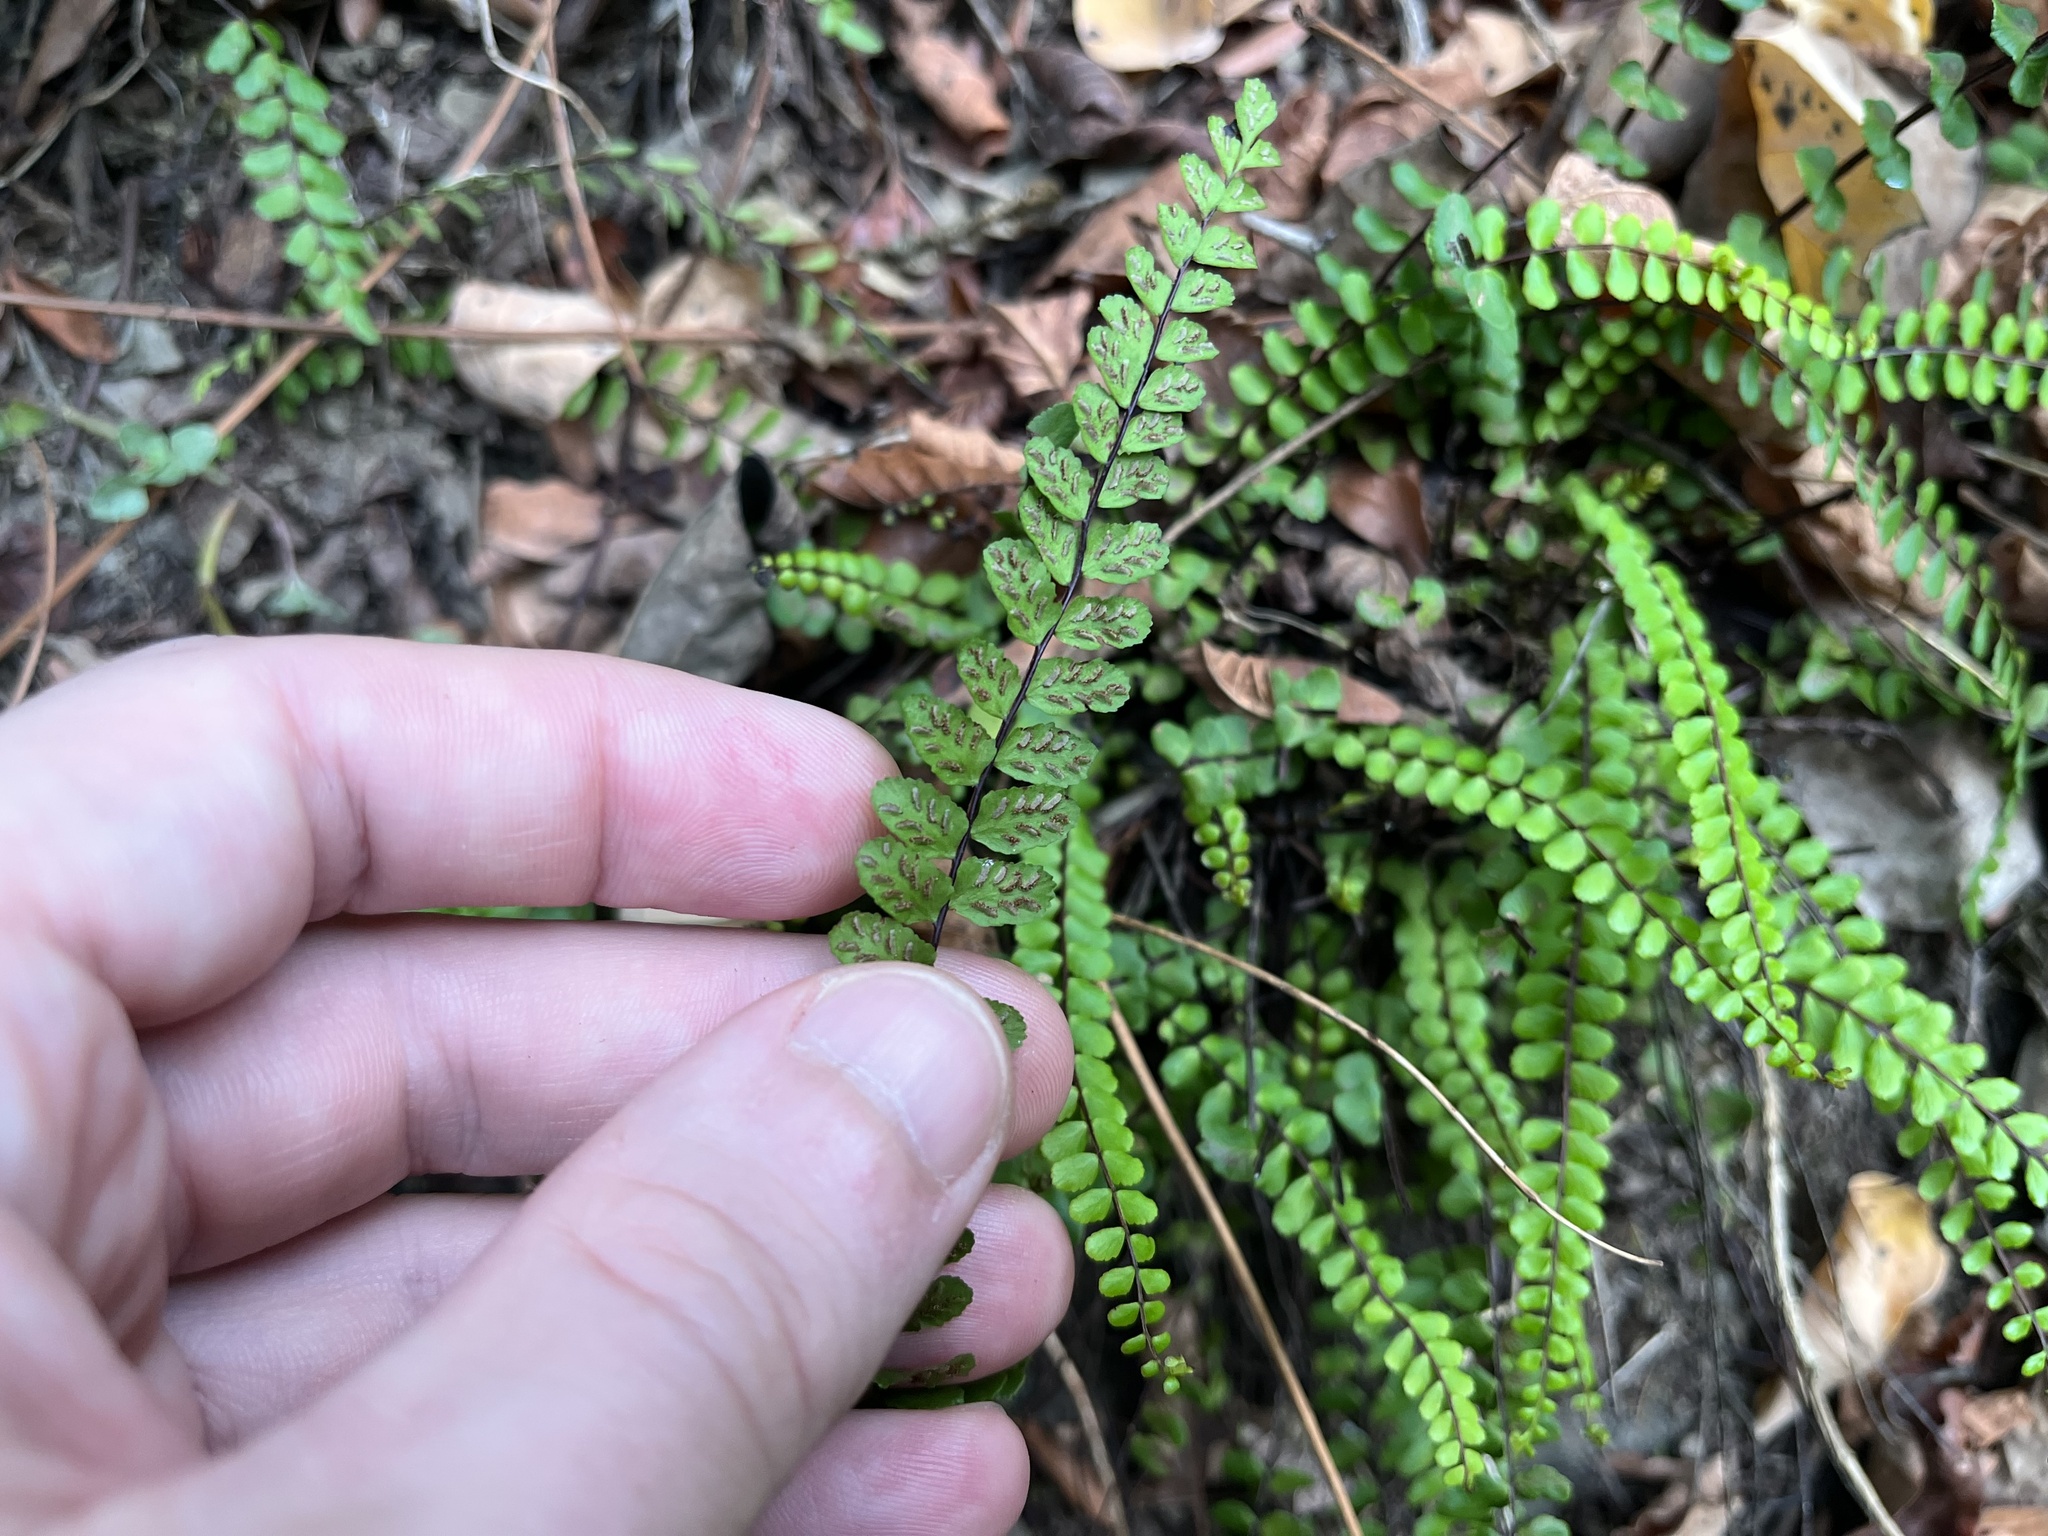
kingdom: Plantae
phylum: Tracheophyta
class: Polypodiopsida
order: Polypodiales
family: Aspleniaceae
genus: Asplenium
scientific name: Asplenium trichomanes
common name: Maidenhair spleenwort
